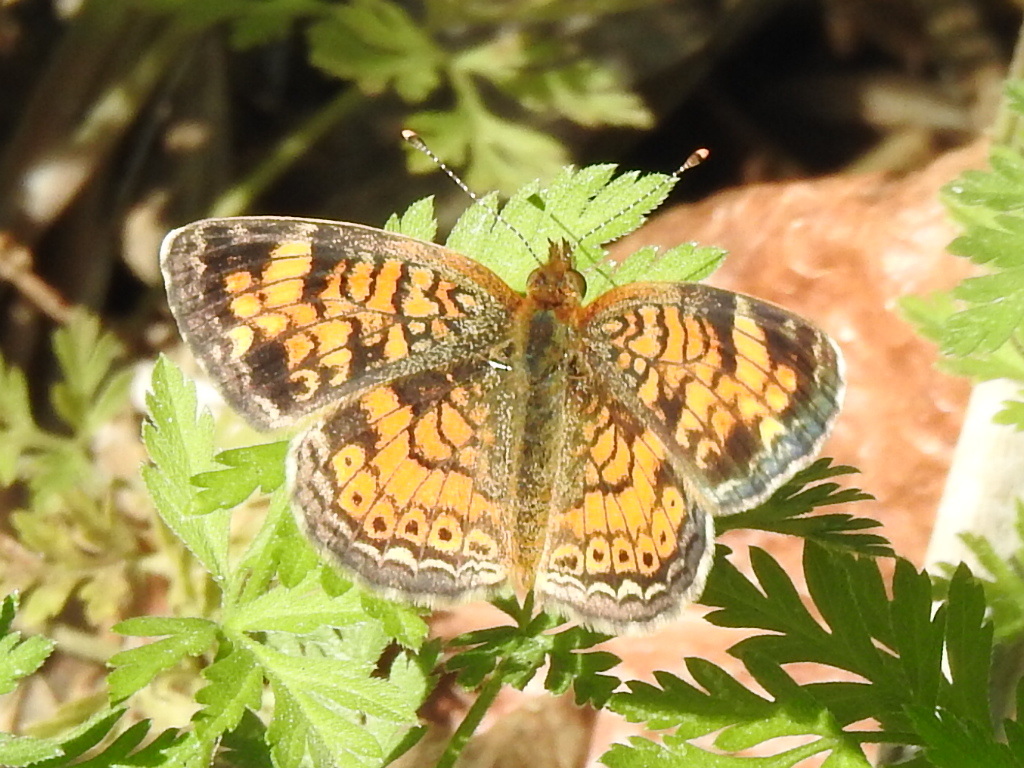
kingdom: Animalia
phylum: Arthropoda
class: Insecta
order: Lepidoptera
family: Nymphalidae
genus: Phyciodes
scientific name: Phyciodes tharos
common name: Pearl crescent
